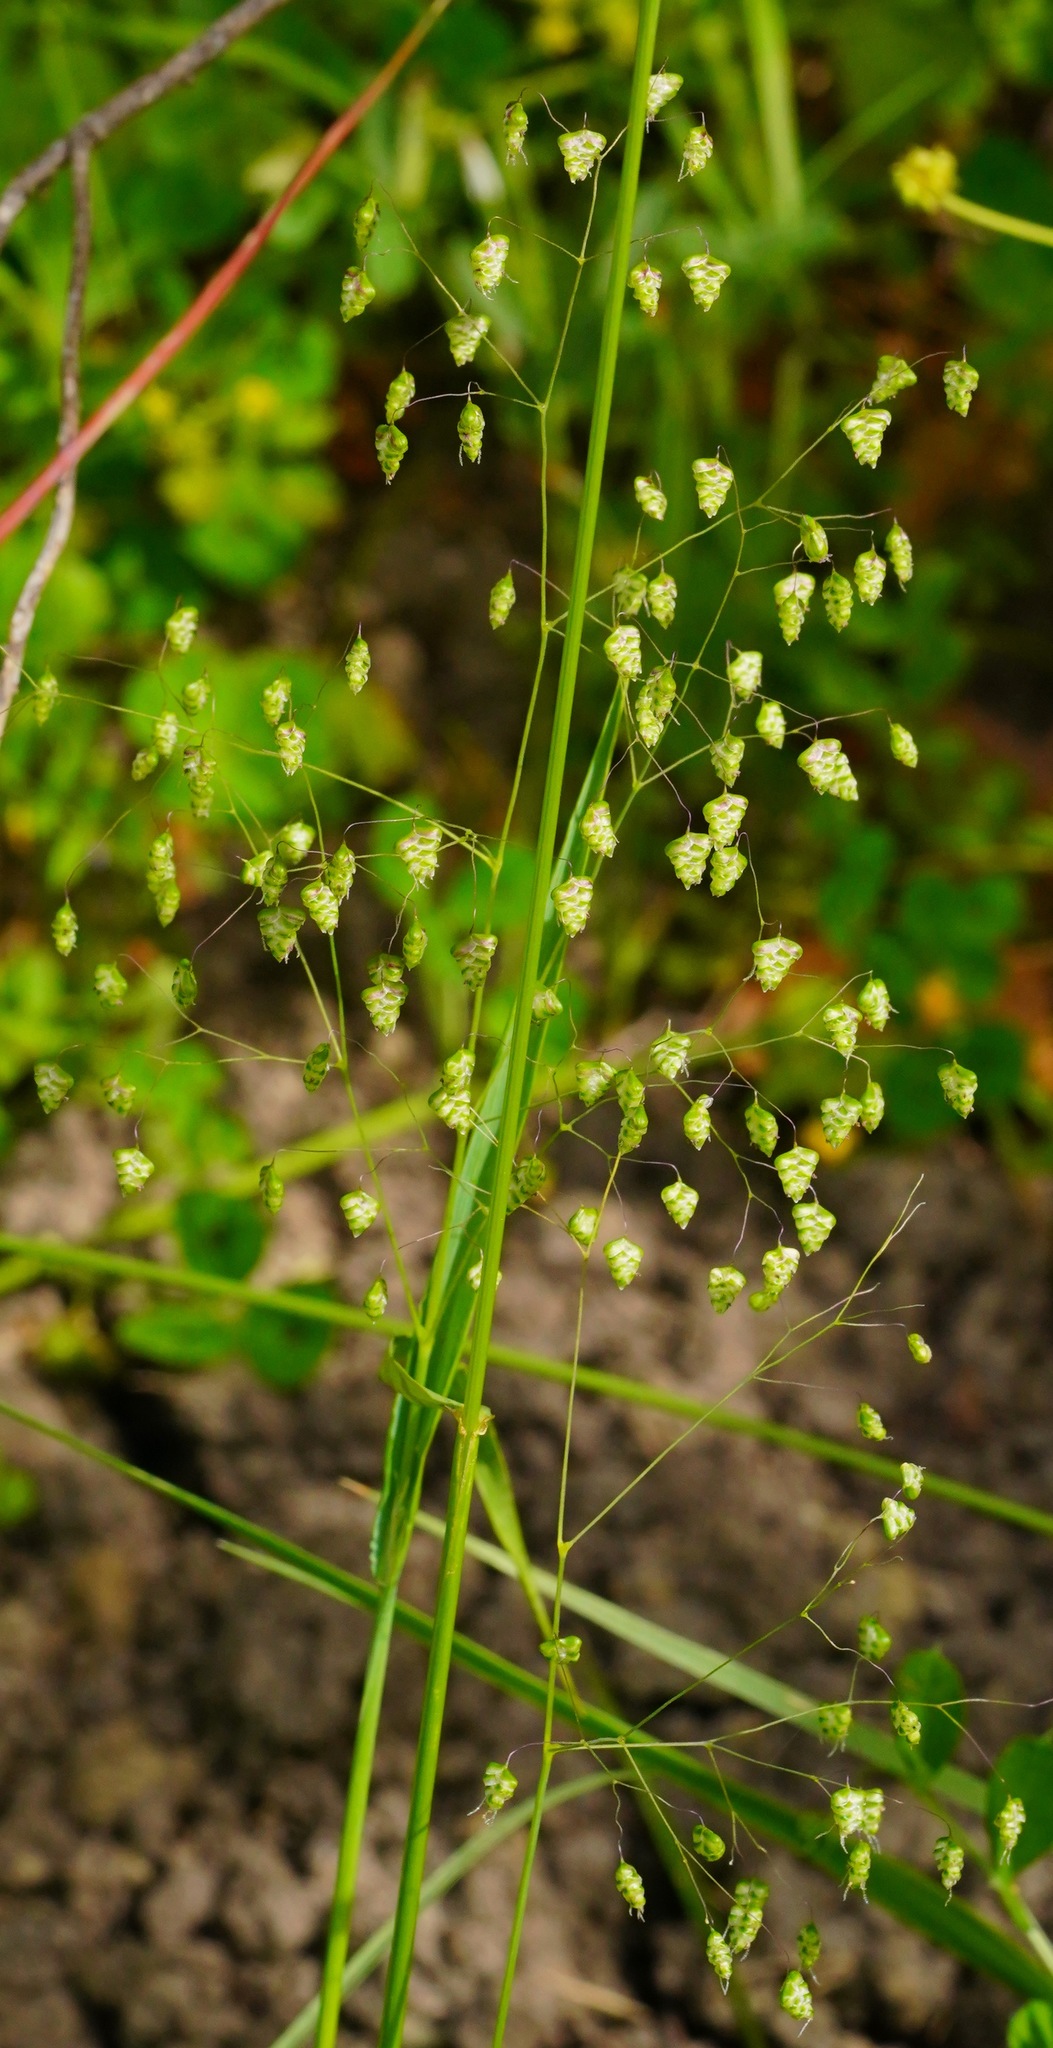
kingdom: Plantae
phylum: Tracheophyta
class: Liliopsida
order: Poales
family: Poaceae
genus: Briza
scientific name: Briza minor
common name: Lesser quaking-grass
